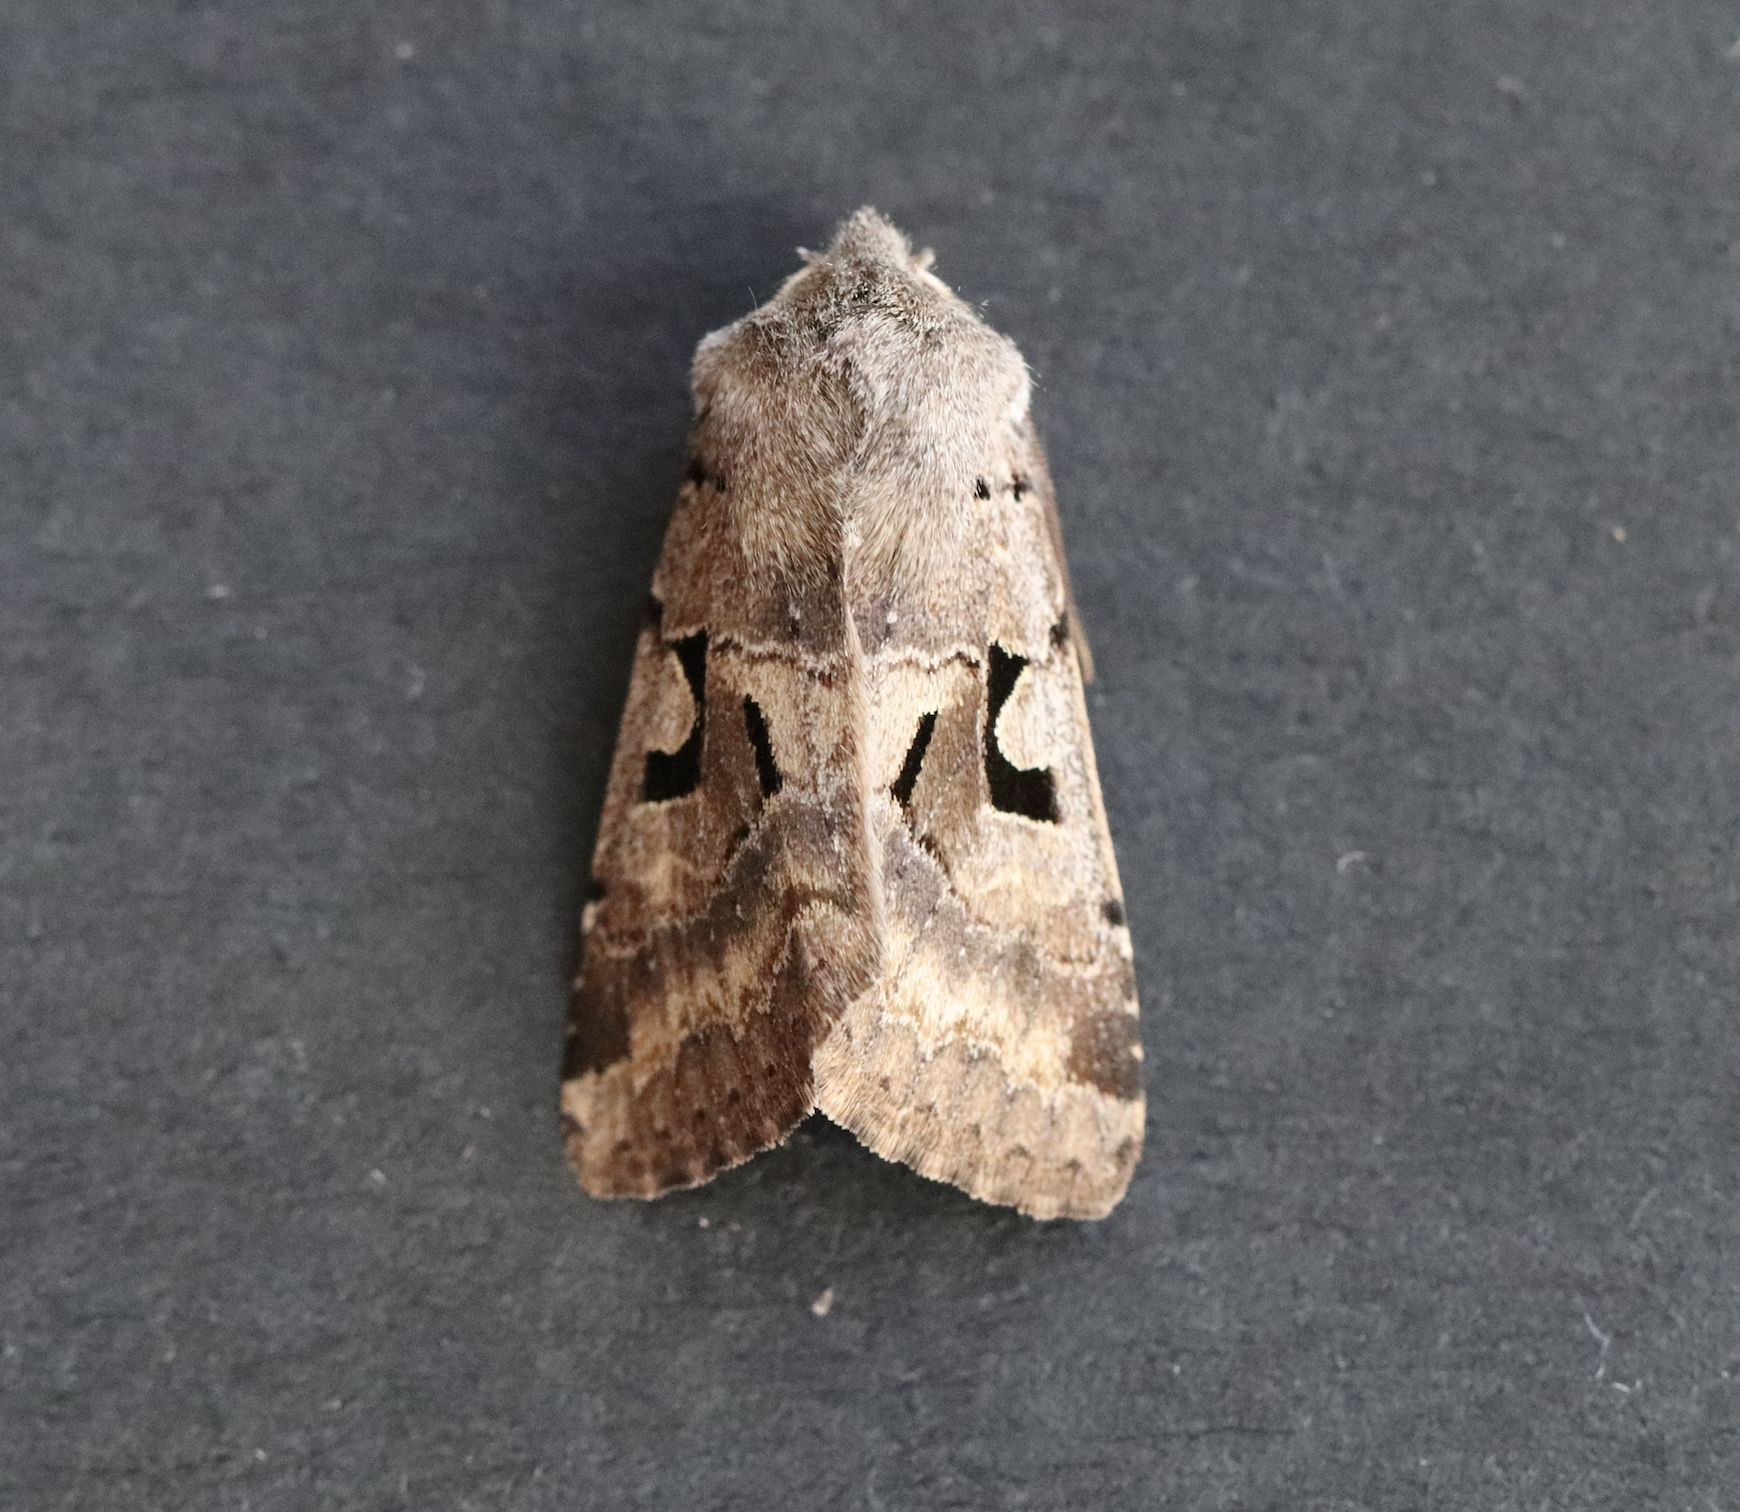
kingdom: Animalia
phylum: Arthropoda
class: Insecta
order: Lepidoptera
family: Noctuidae
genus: Orthosia
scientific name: Orthosia gothica
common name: Hebrew character
